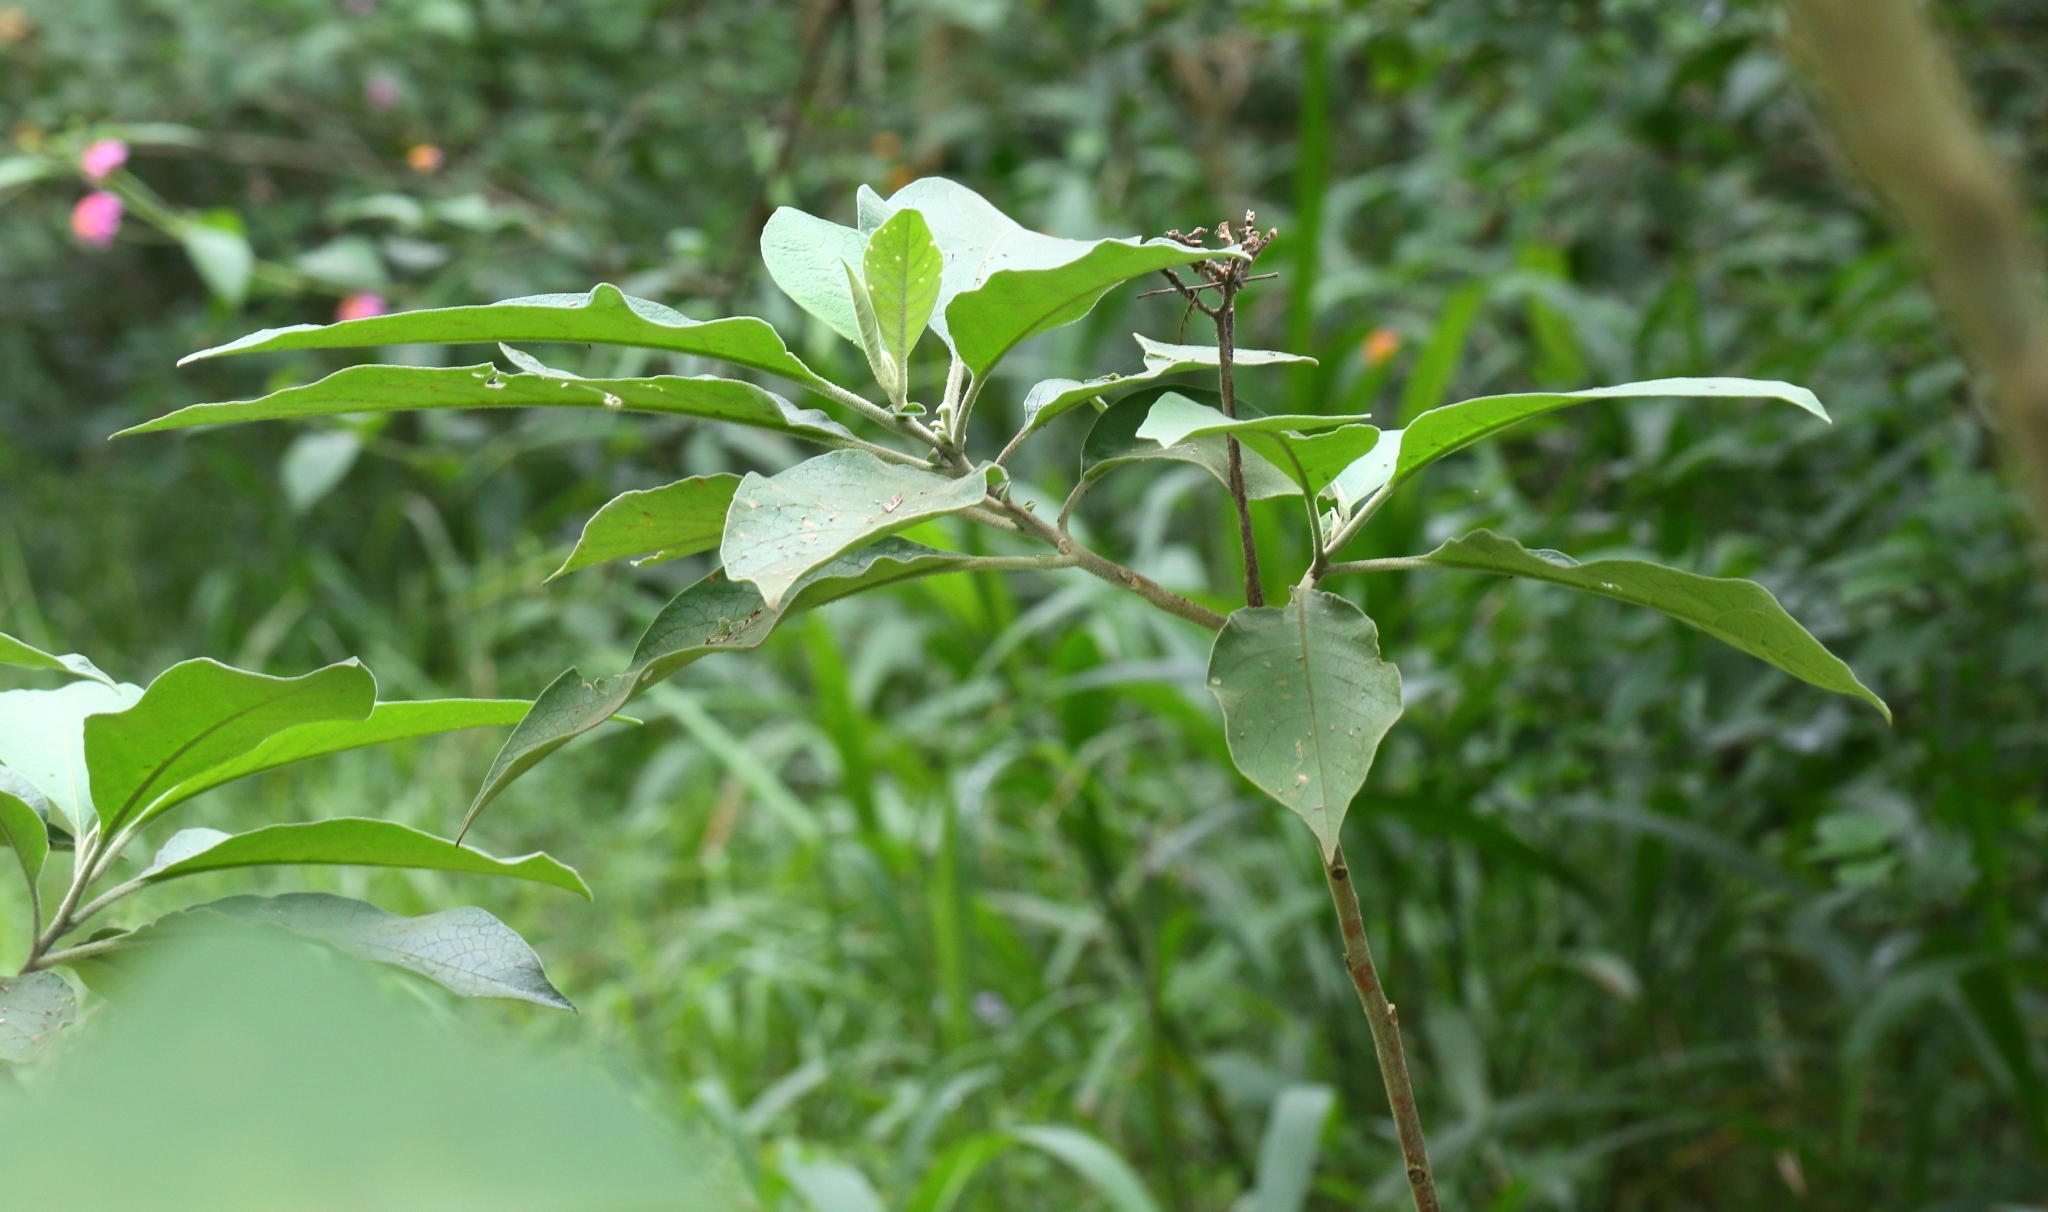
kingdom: Plantae
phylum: Tracheophyta
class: Magnoliopsida
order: Solanales
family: Solanaceae
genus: Solanum
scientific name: Solanum mauritianum
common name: Earleaf nightshade
